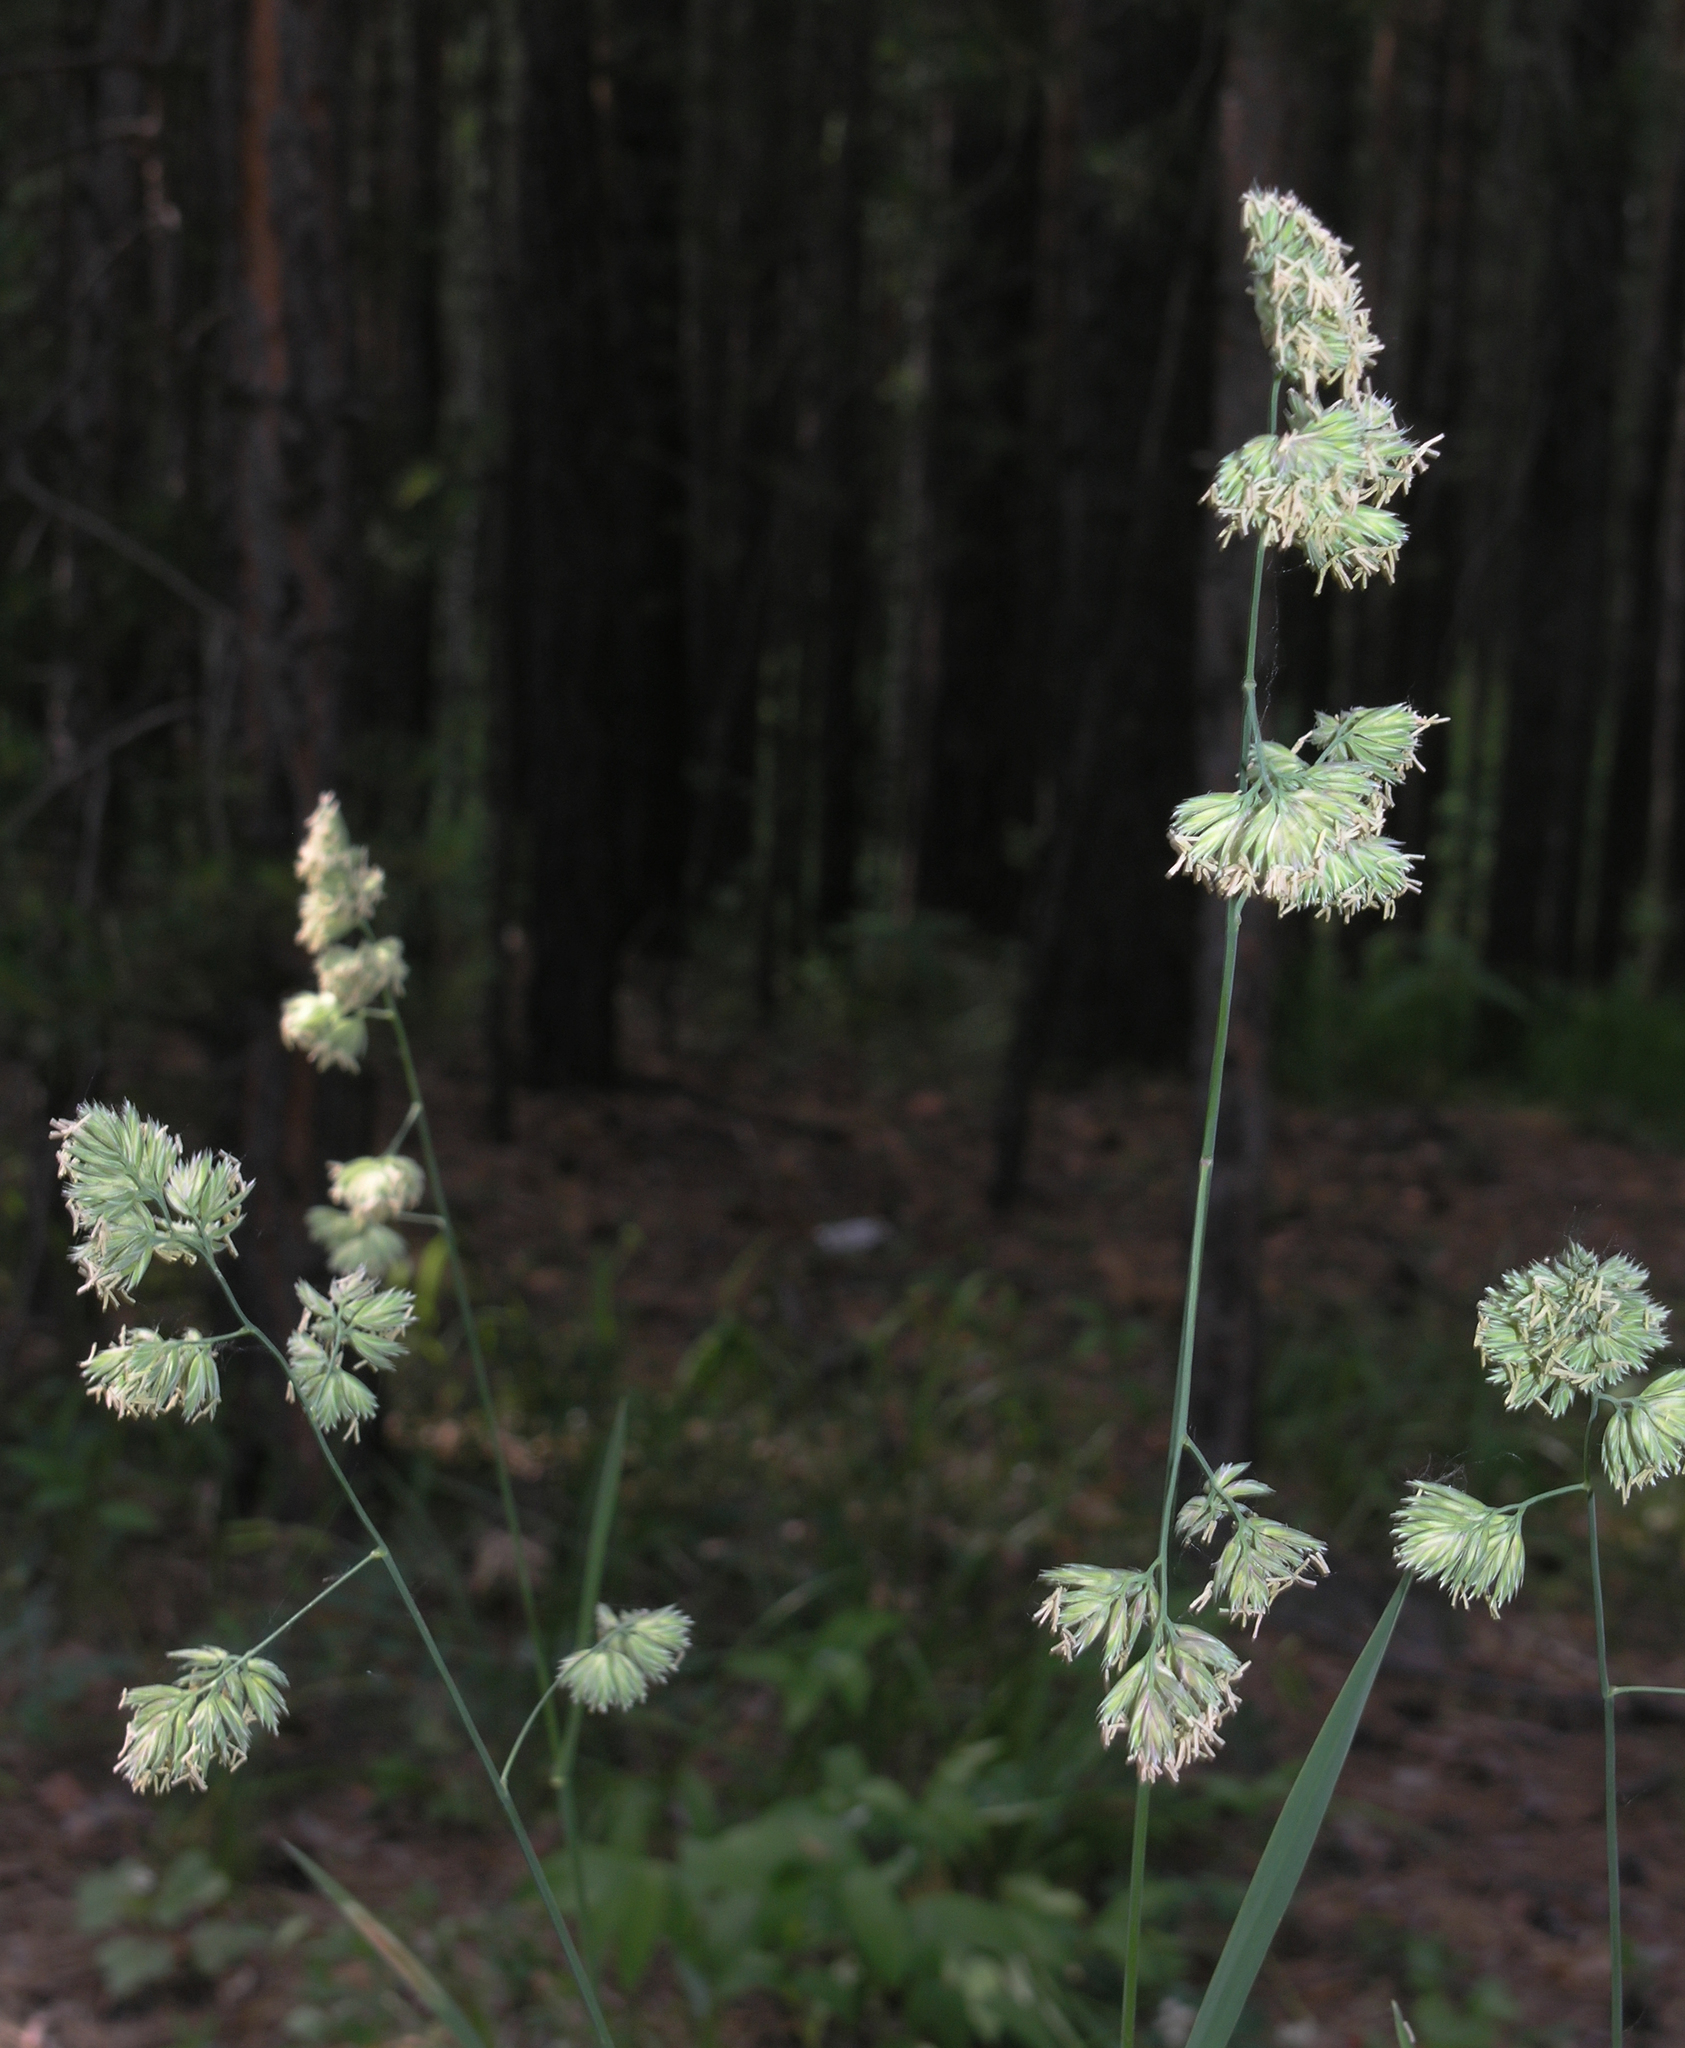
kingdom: Plantae
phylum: Tracheophyta
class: Liliopsida
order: Poales
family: Poaceae
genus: Dactylis
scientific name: Dactylis glomerata
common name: Orchardgrass
